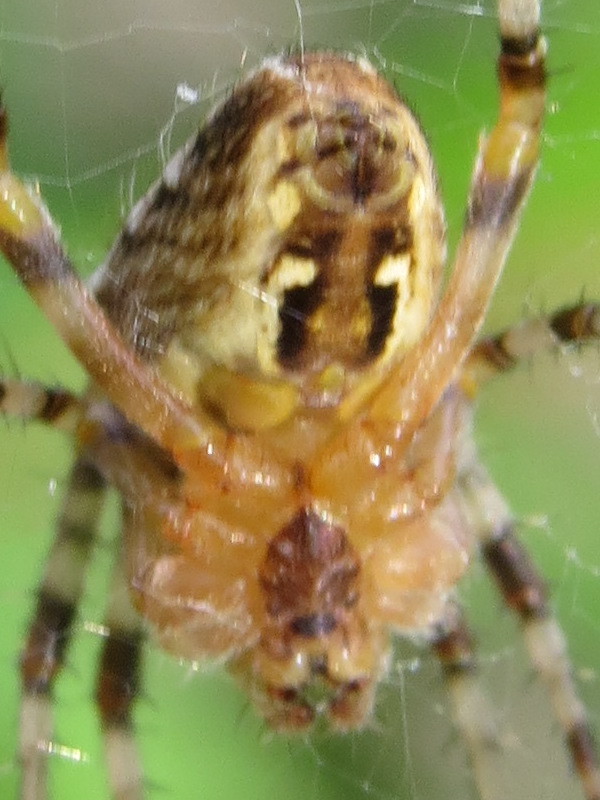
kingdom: Animalia
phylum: Arthropoda
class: Arachnida
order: Araneae
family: Araneidae
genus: Araneus
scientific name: Araneus diadematus
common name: Cross orbweaver
